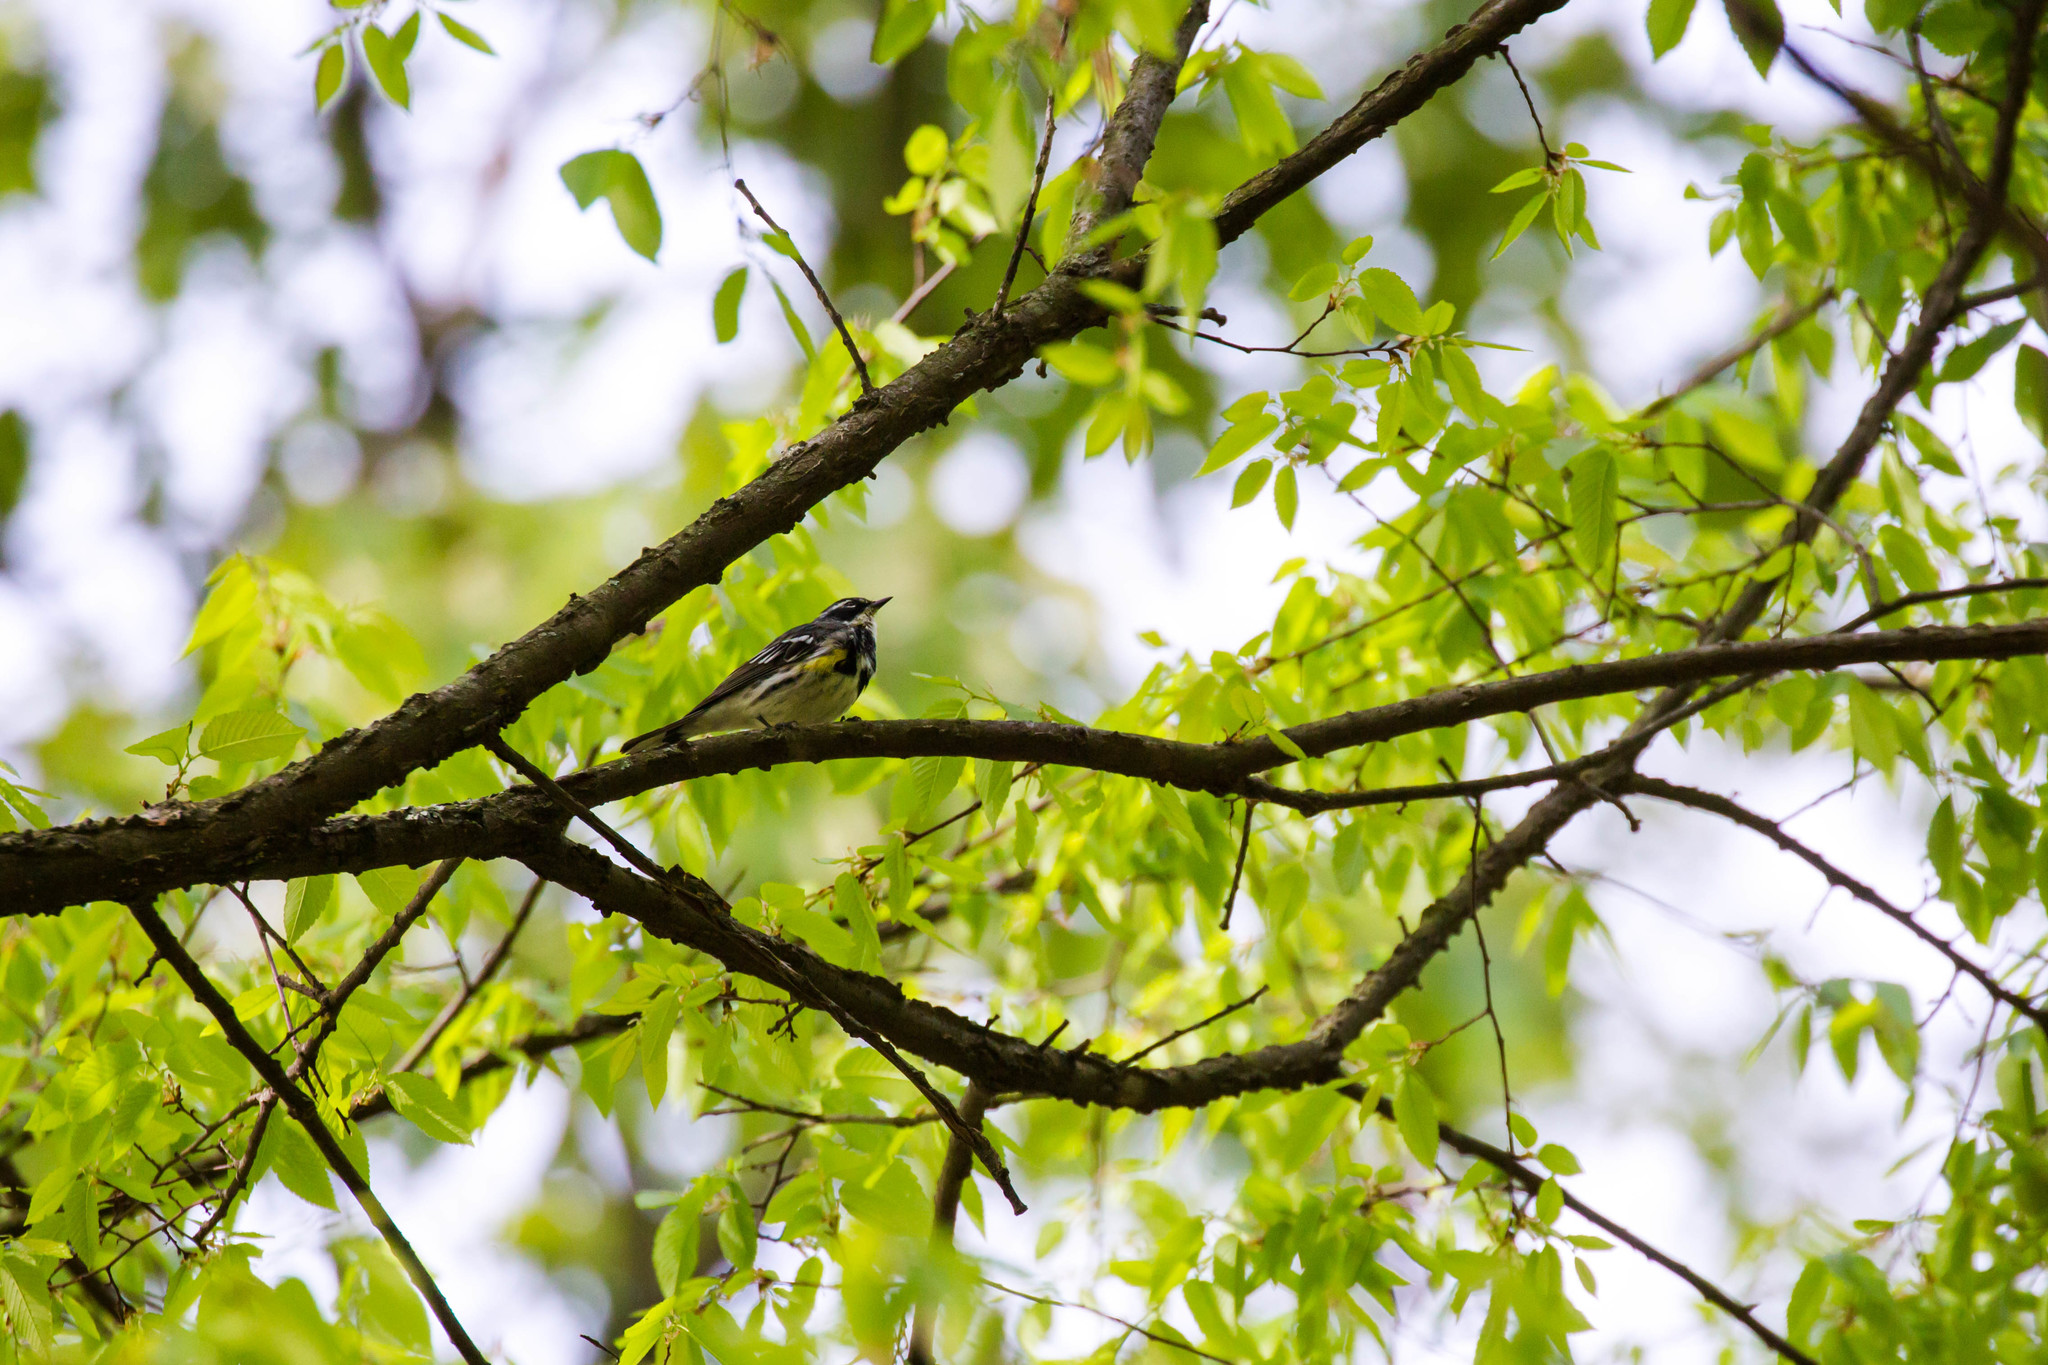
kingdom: Animalia
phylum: Chordata
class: Aves
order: Passeriformes
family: Parulidae
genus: Setophaga
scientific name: Setophaga coronata
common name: Myrtle warbler
